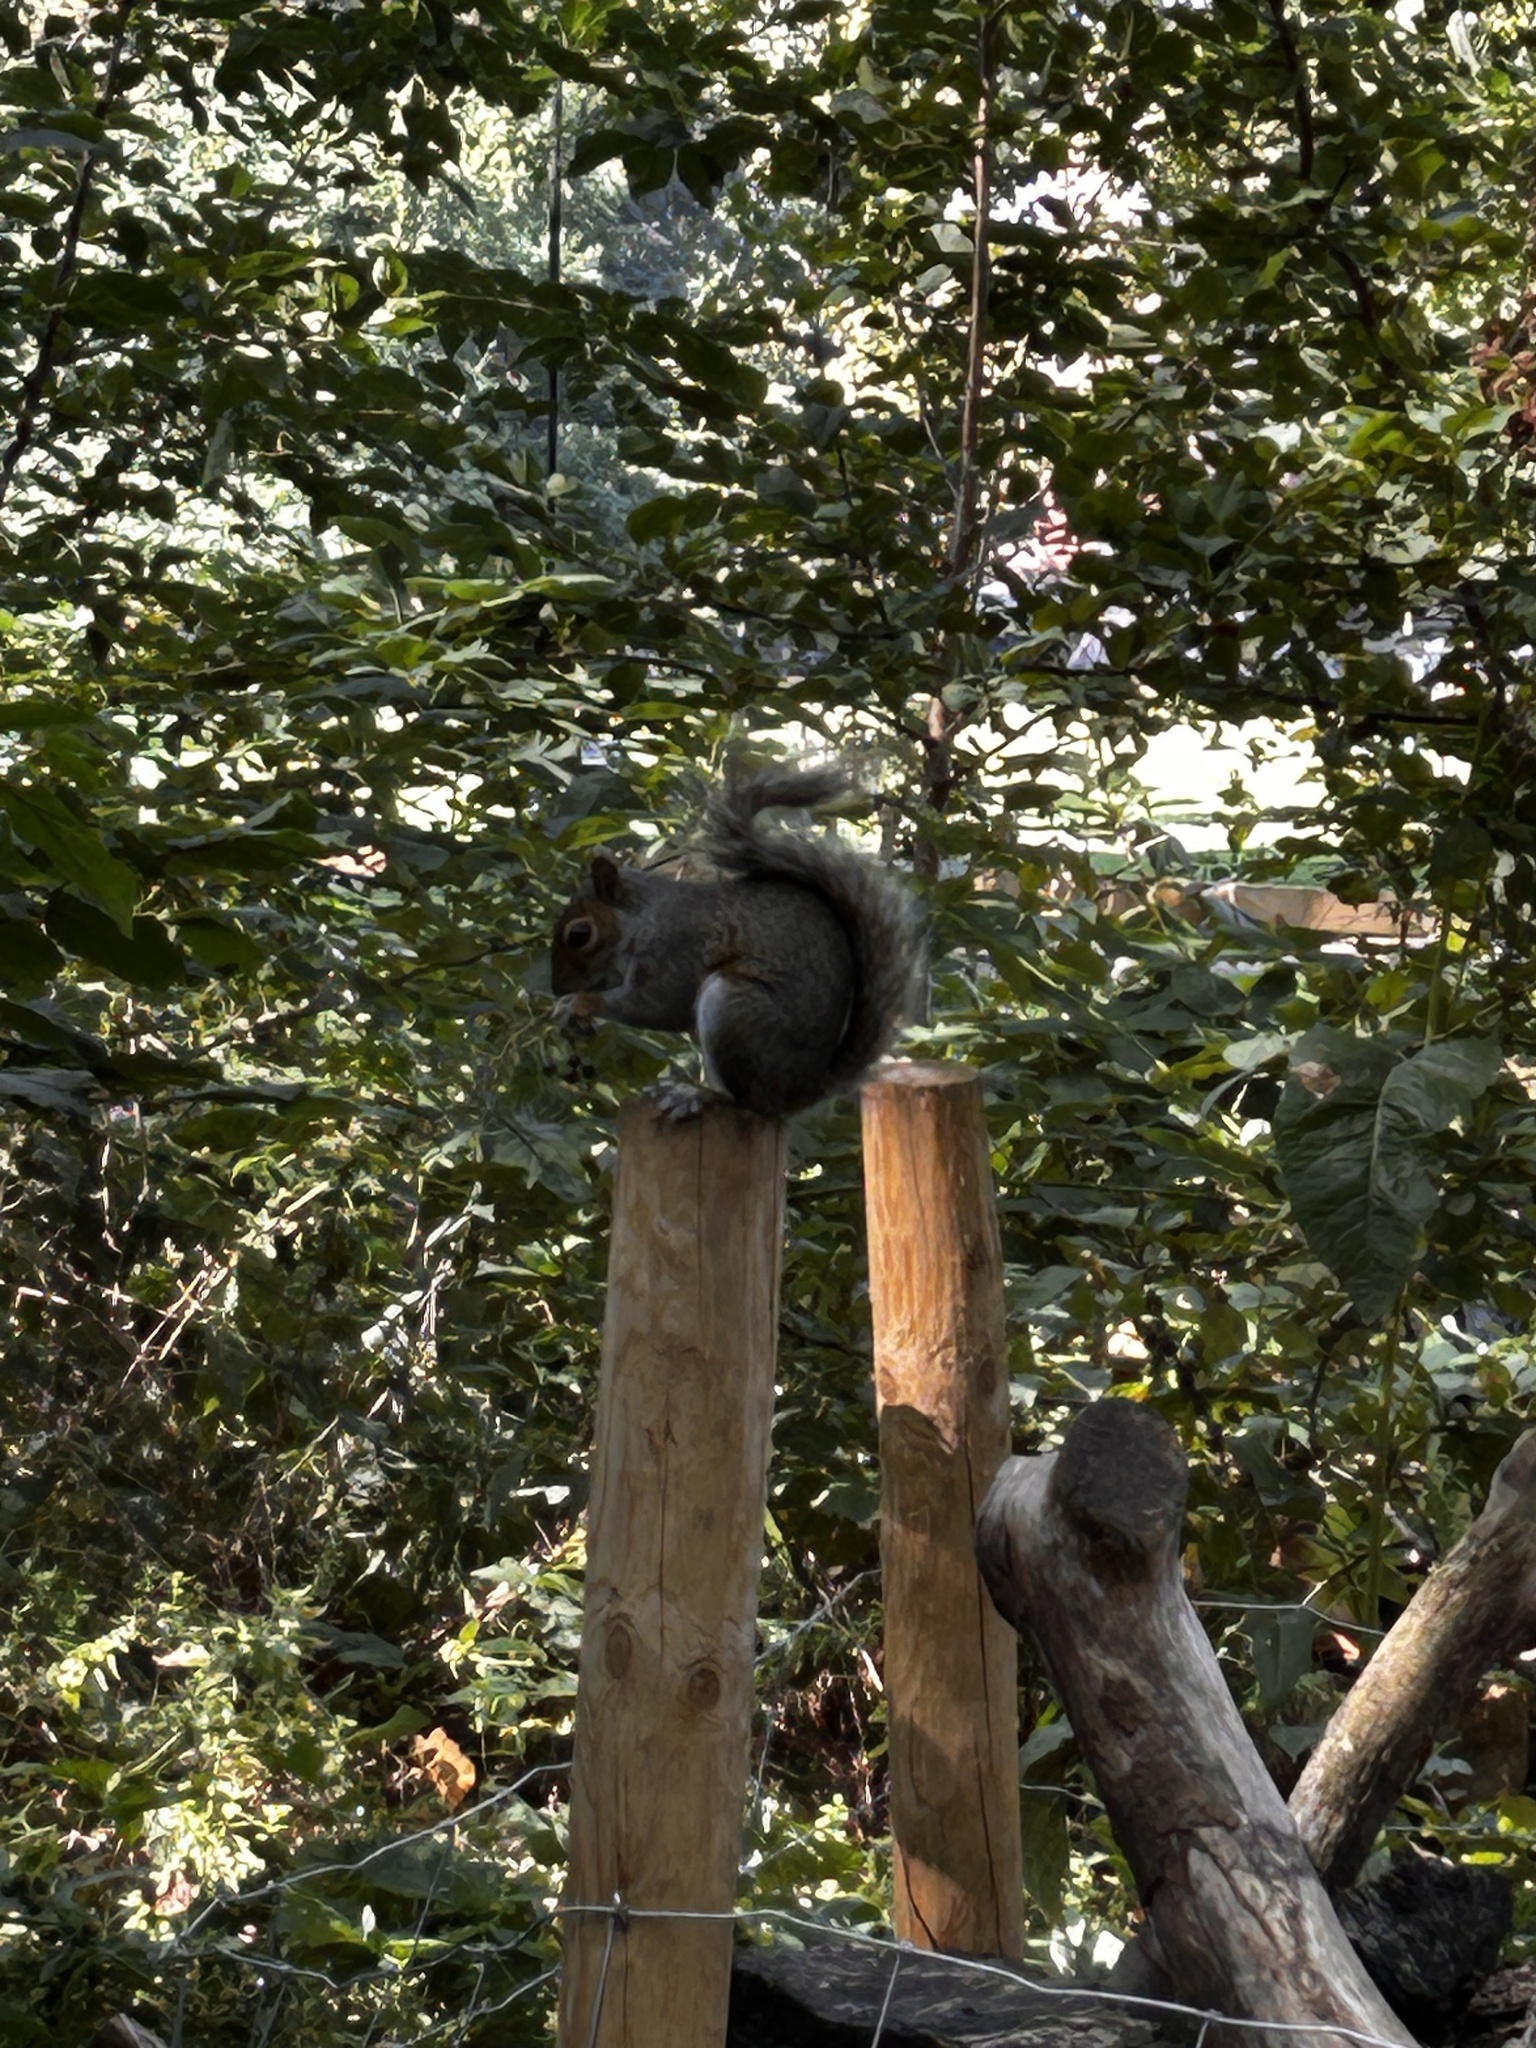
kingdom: Animalia
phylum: Chordata
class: Mammalia
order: Rodentia
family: Sciuridae
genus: Sciurus
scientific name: Sciurus carolinensis
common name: Eastern gray squirrel
